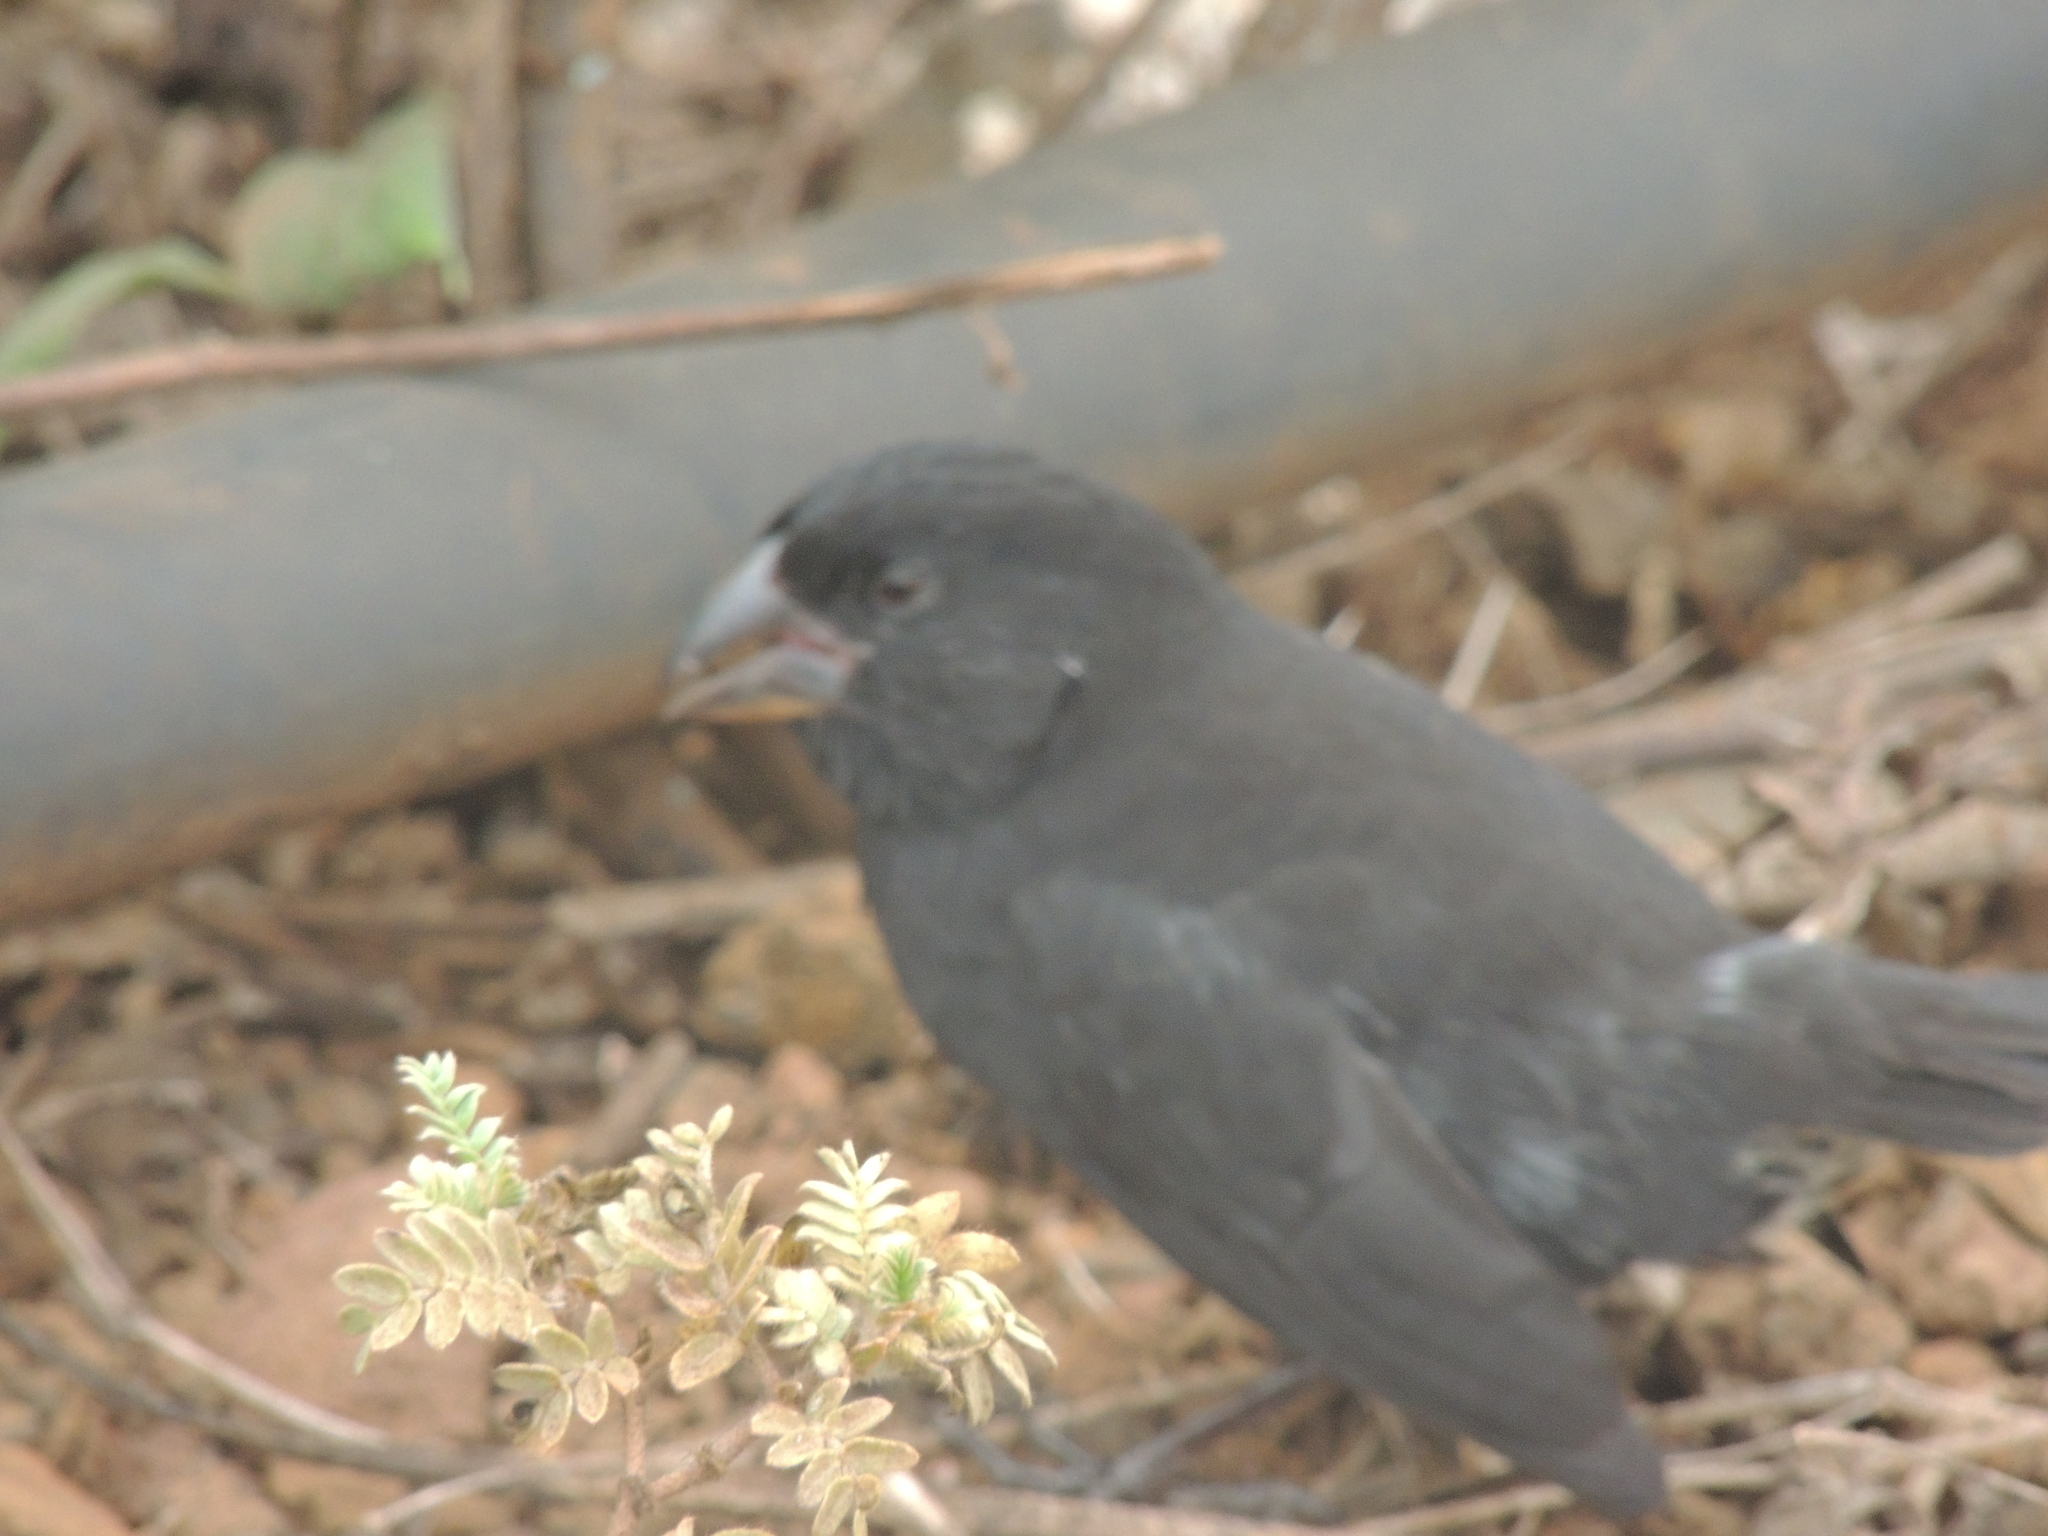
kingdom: Animalia
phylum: Chordata
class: Aves
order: Passeriformes
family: Thraupidae
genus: Geospiza
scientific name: Geospiza fortis
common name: Medium ground finch
